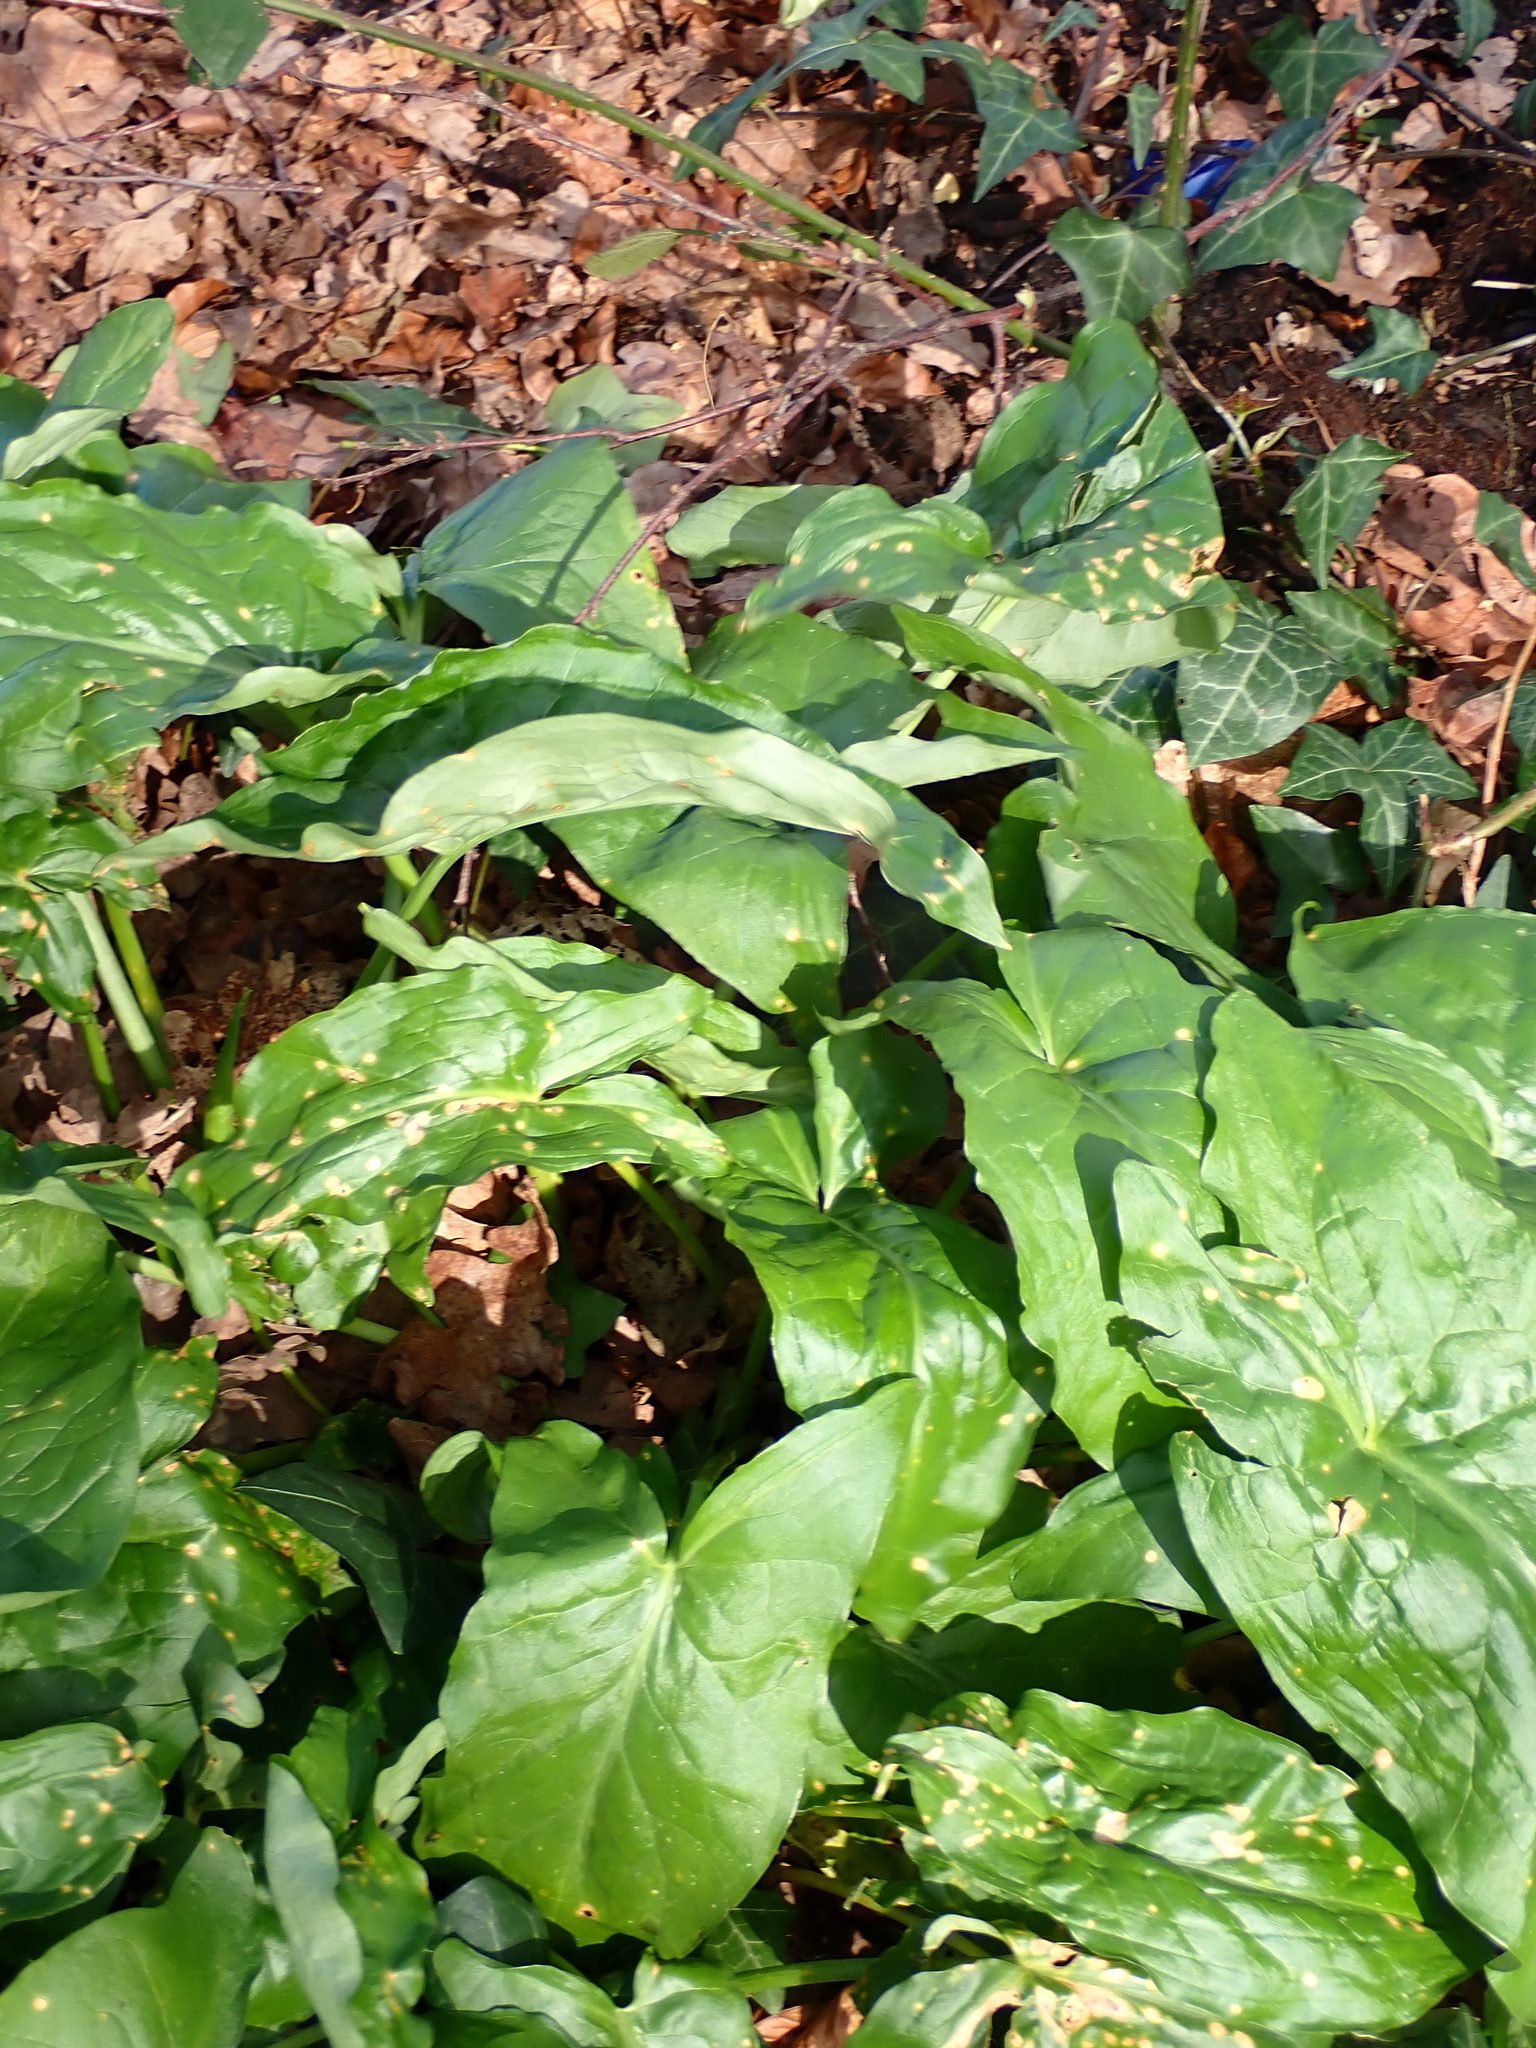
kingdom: Plantae
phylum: Tracheophyta
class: Liliopsida
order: Alismatales
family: Araceae
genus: Arum
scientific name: Arum maculatum
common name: Lords-and-ladies
